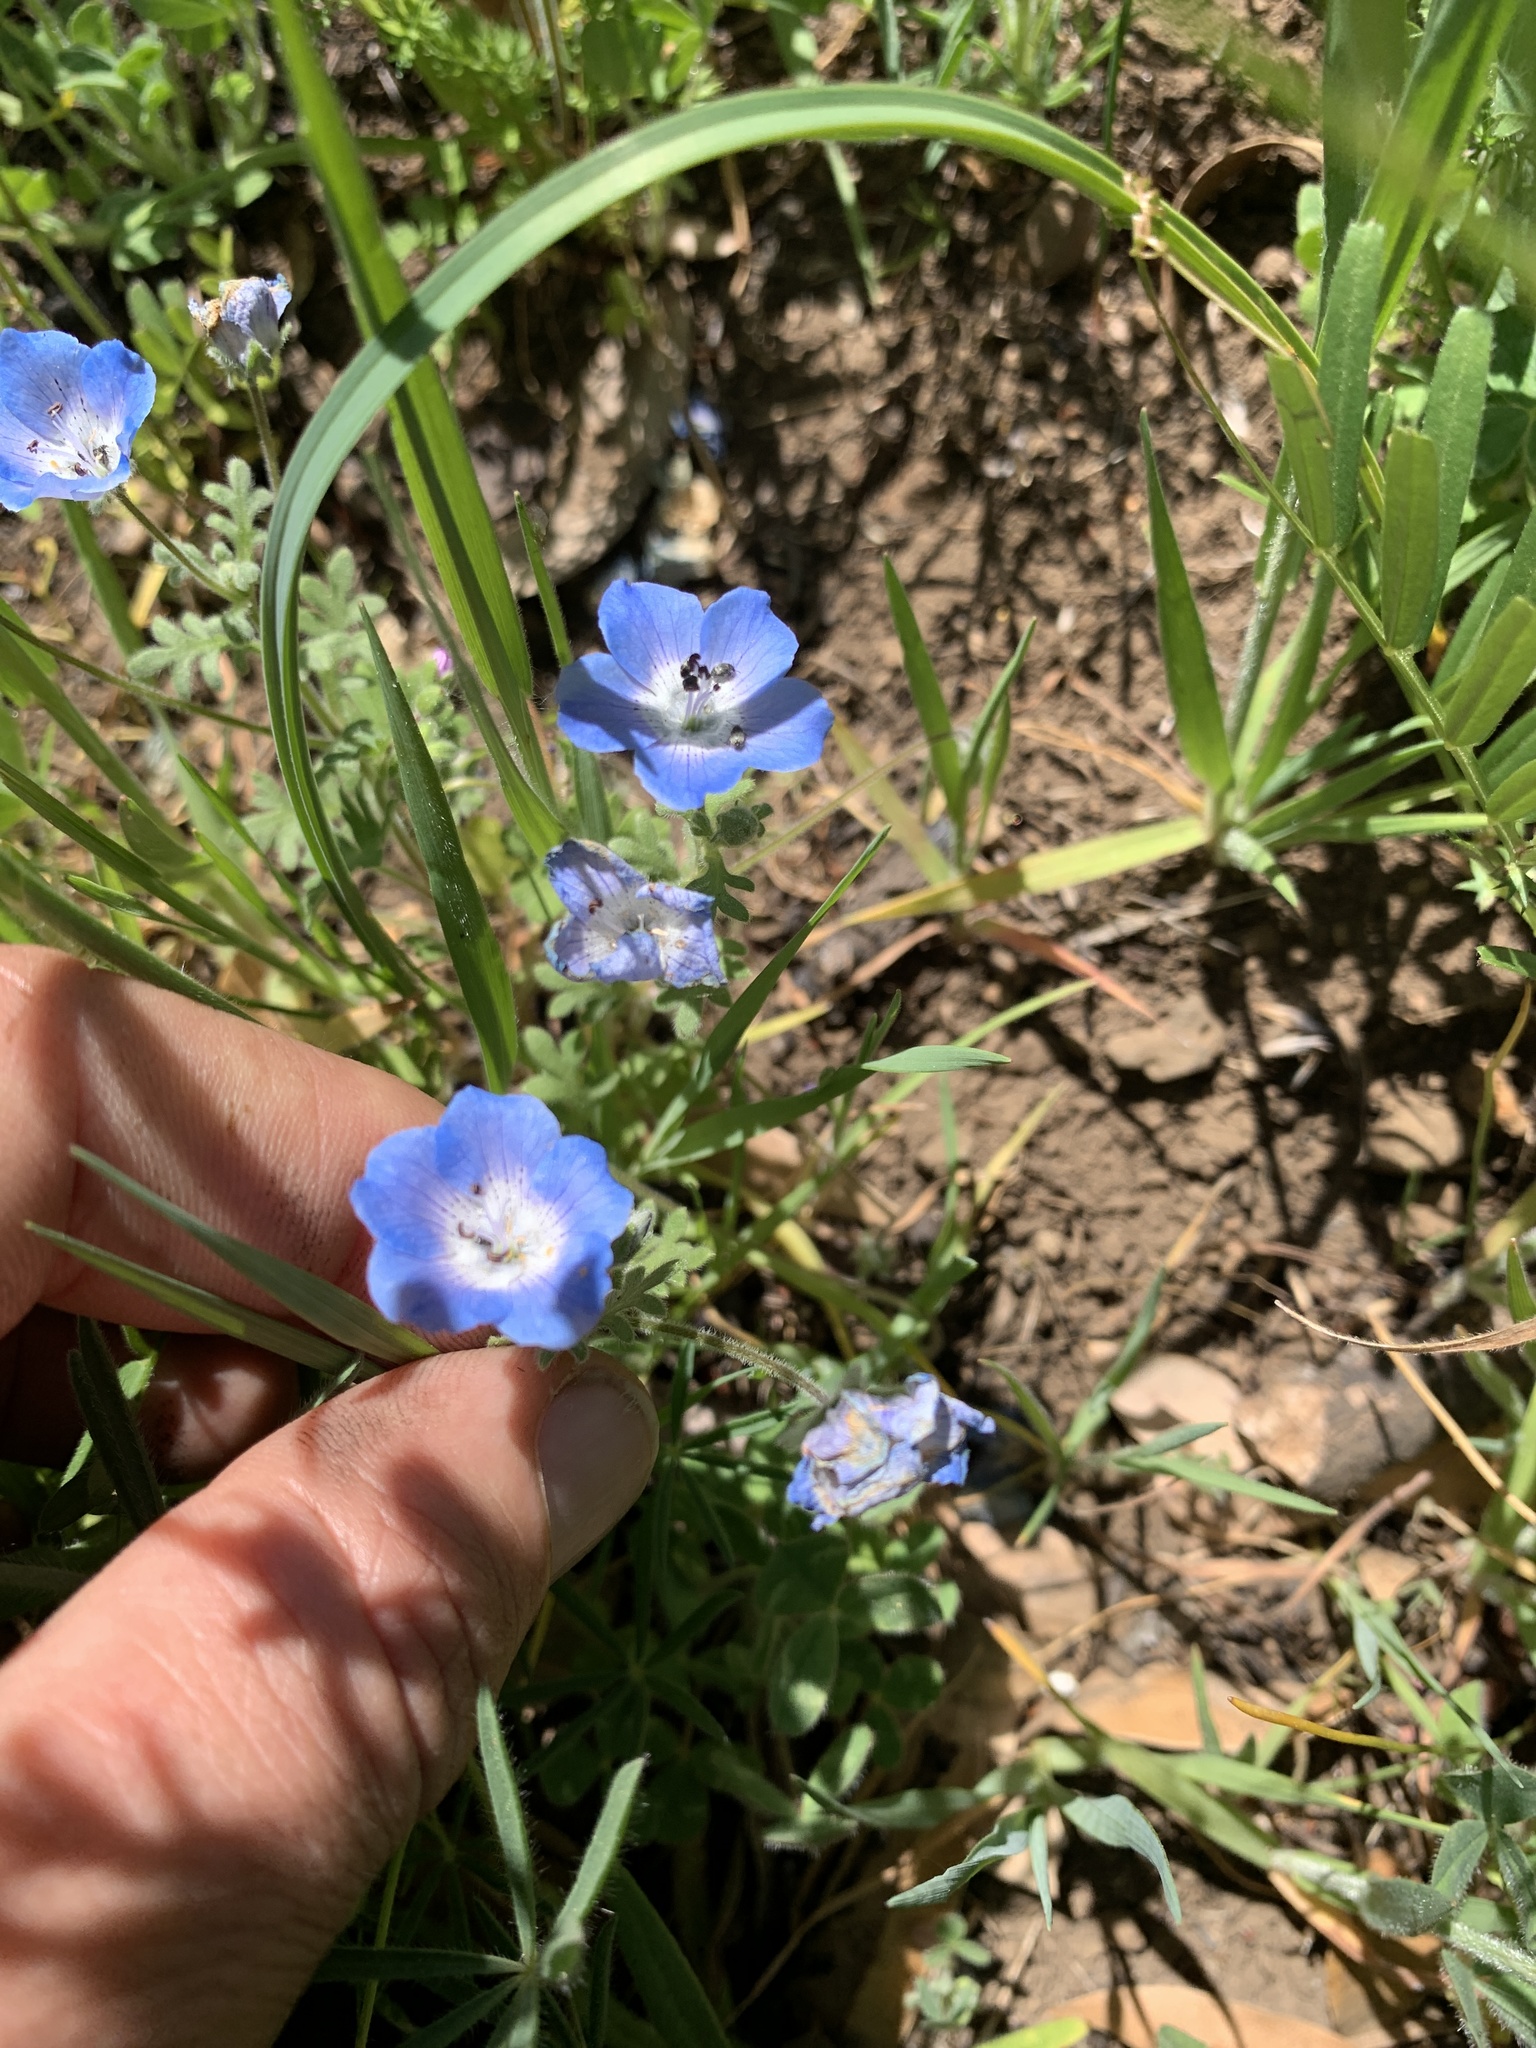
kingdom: Plantae
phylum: Tracheophyta
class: Magnoliopsida
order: Boraginales
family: Hydrophyllaceae
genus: Nemophila
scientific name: Nemophila menziesii
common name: Baby's-blue-eyes
